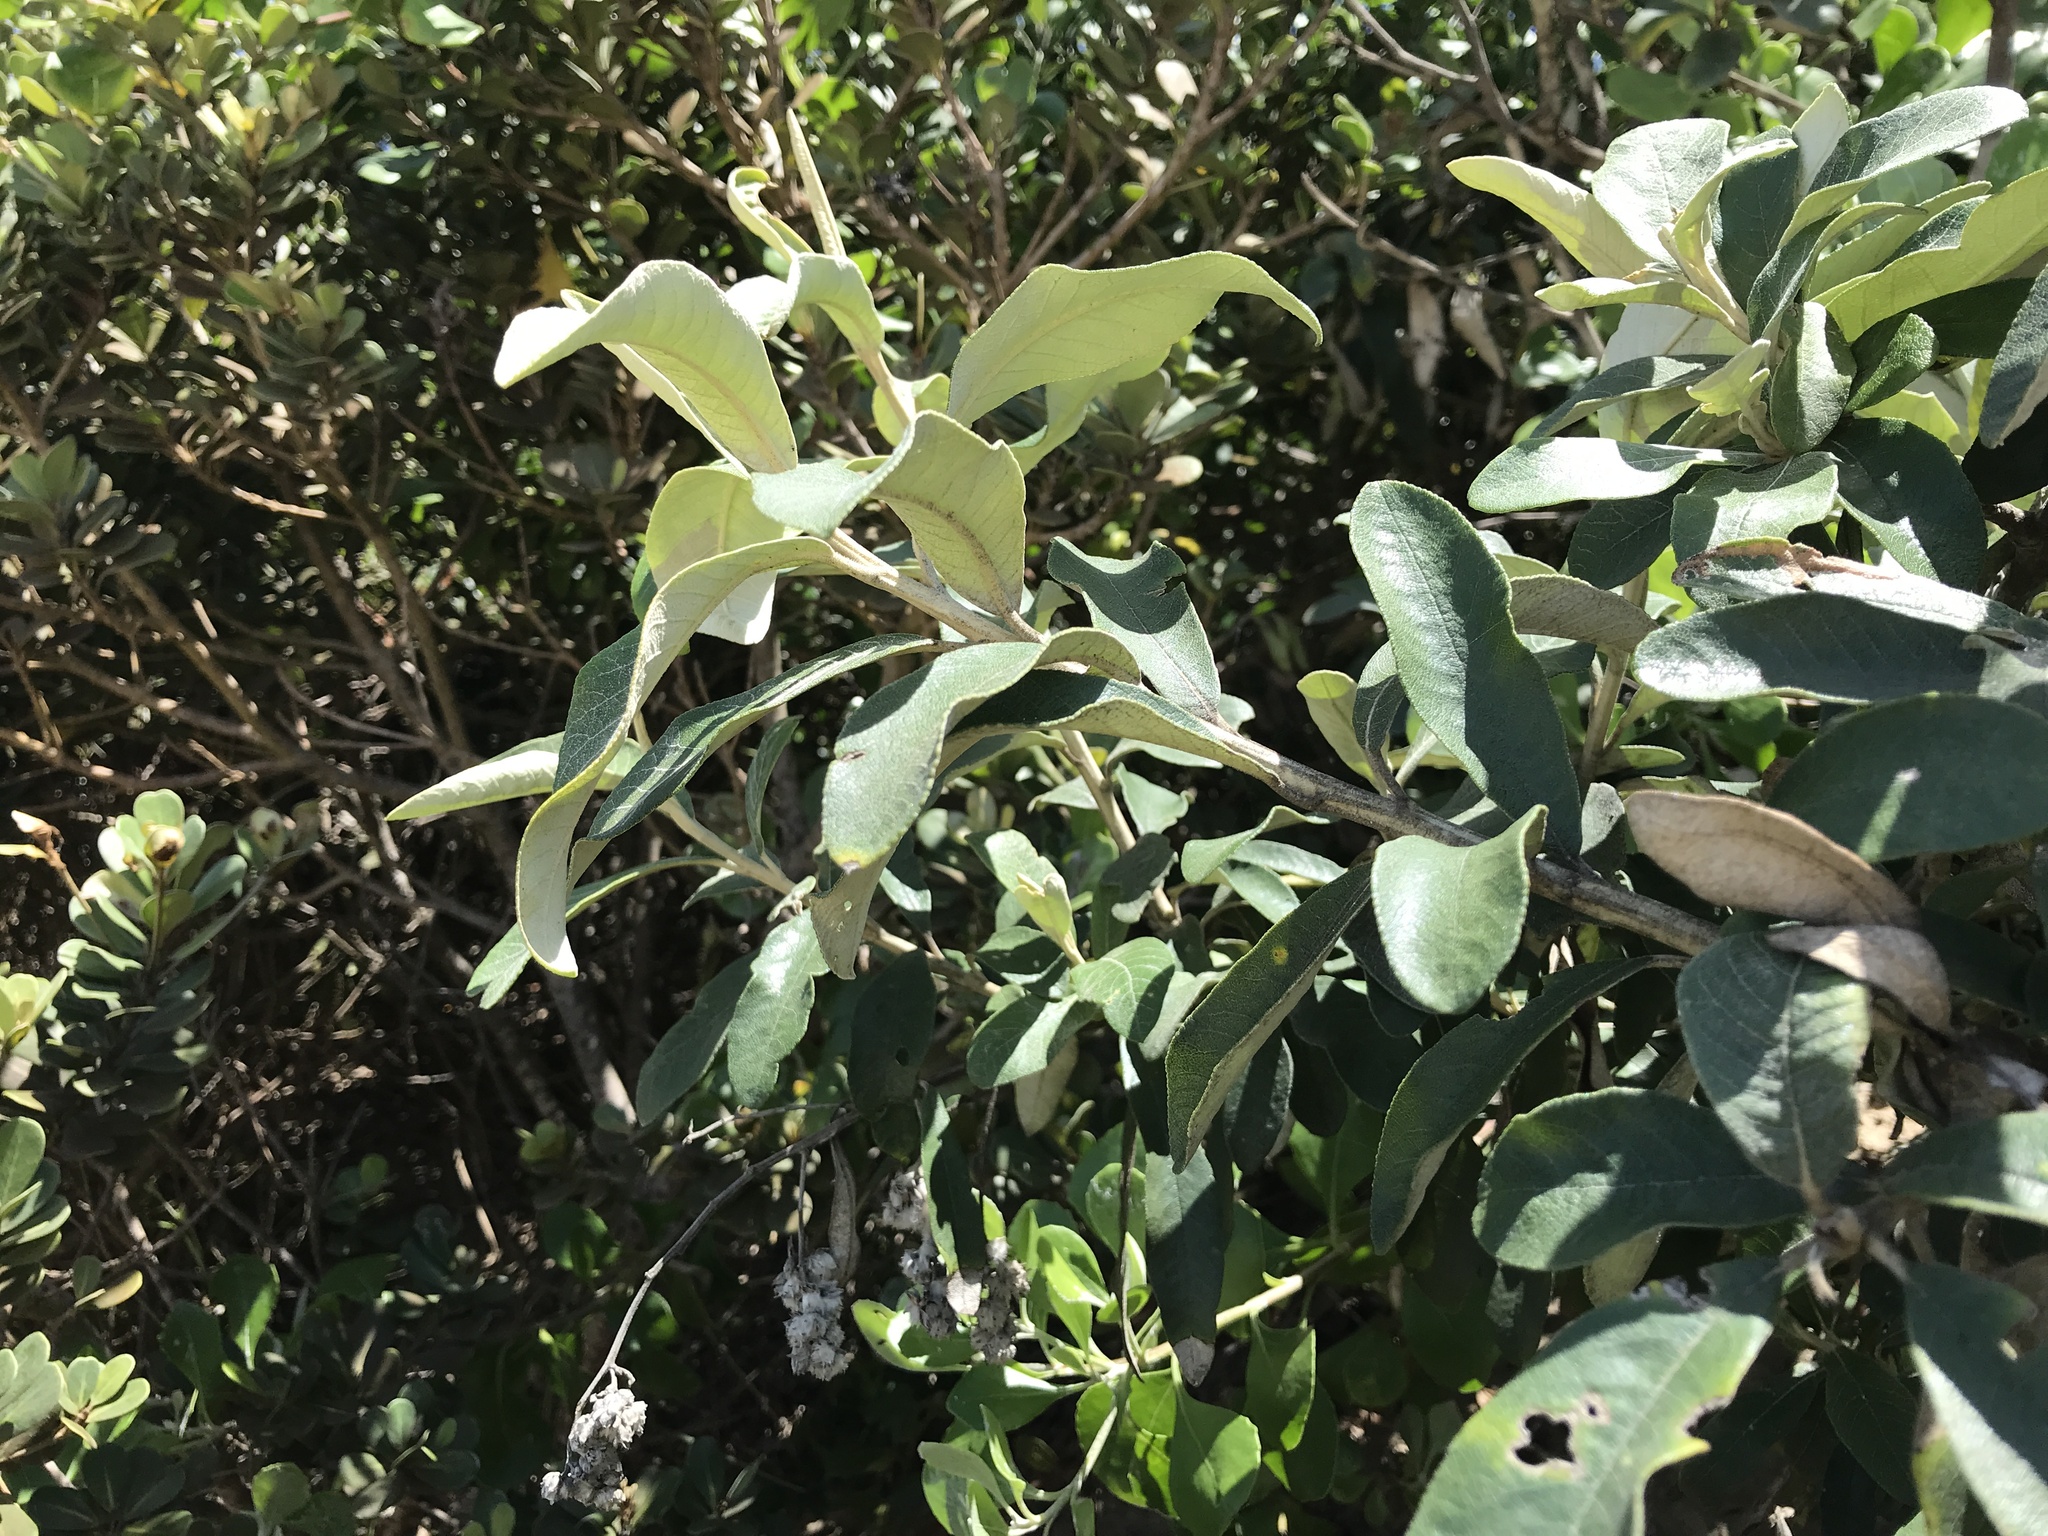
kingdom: Plantae
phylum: Tracheophyta
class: Magnoliopsida
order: Asterales
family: Asteraceae
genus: Tarchonanthus
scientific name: Tarchonanthus littoralis
